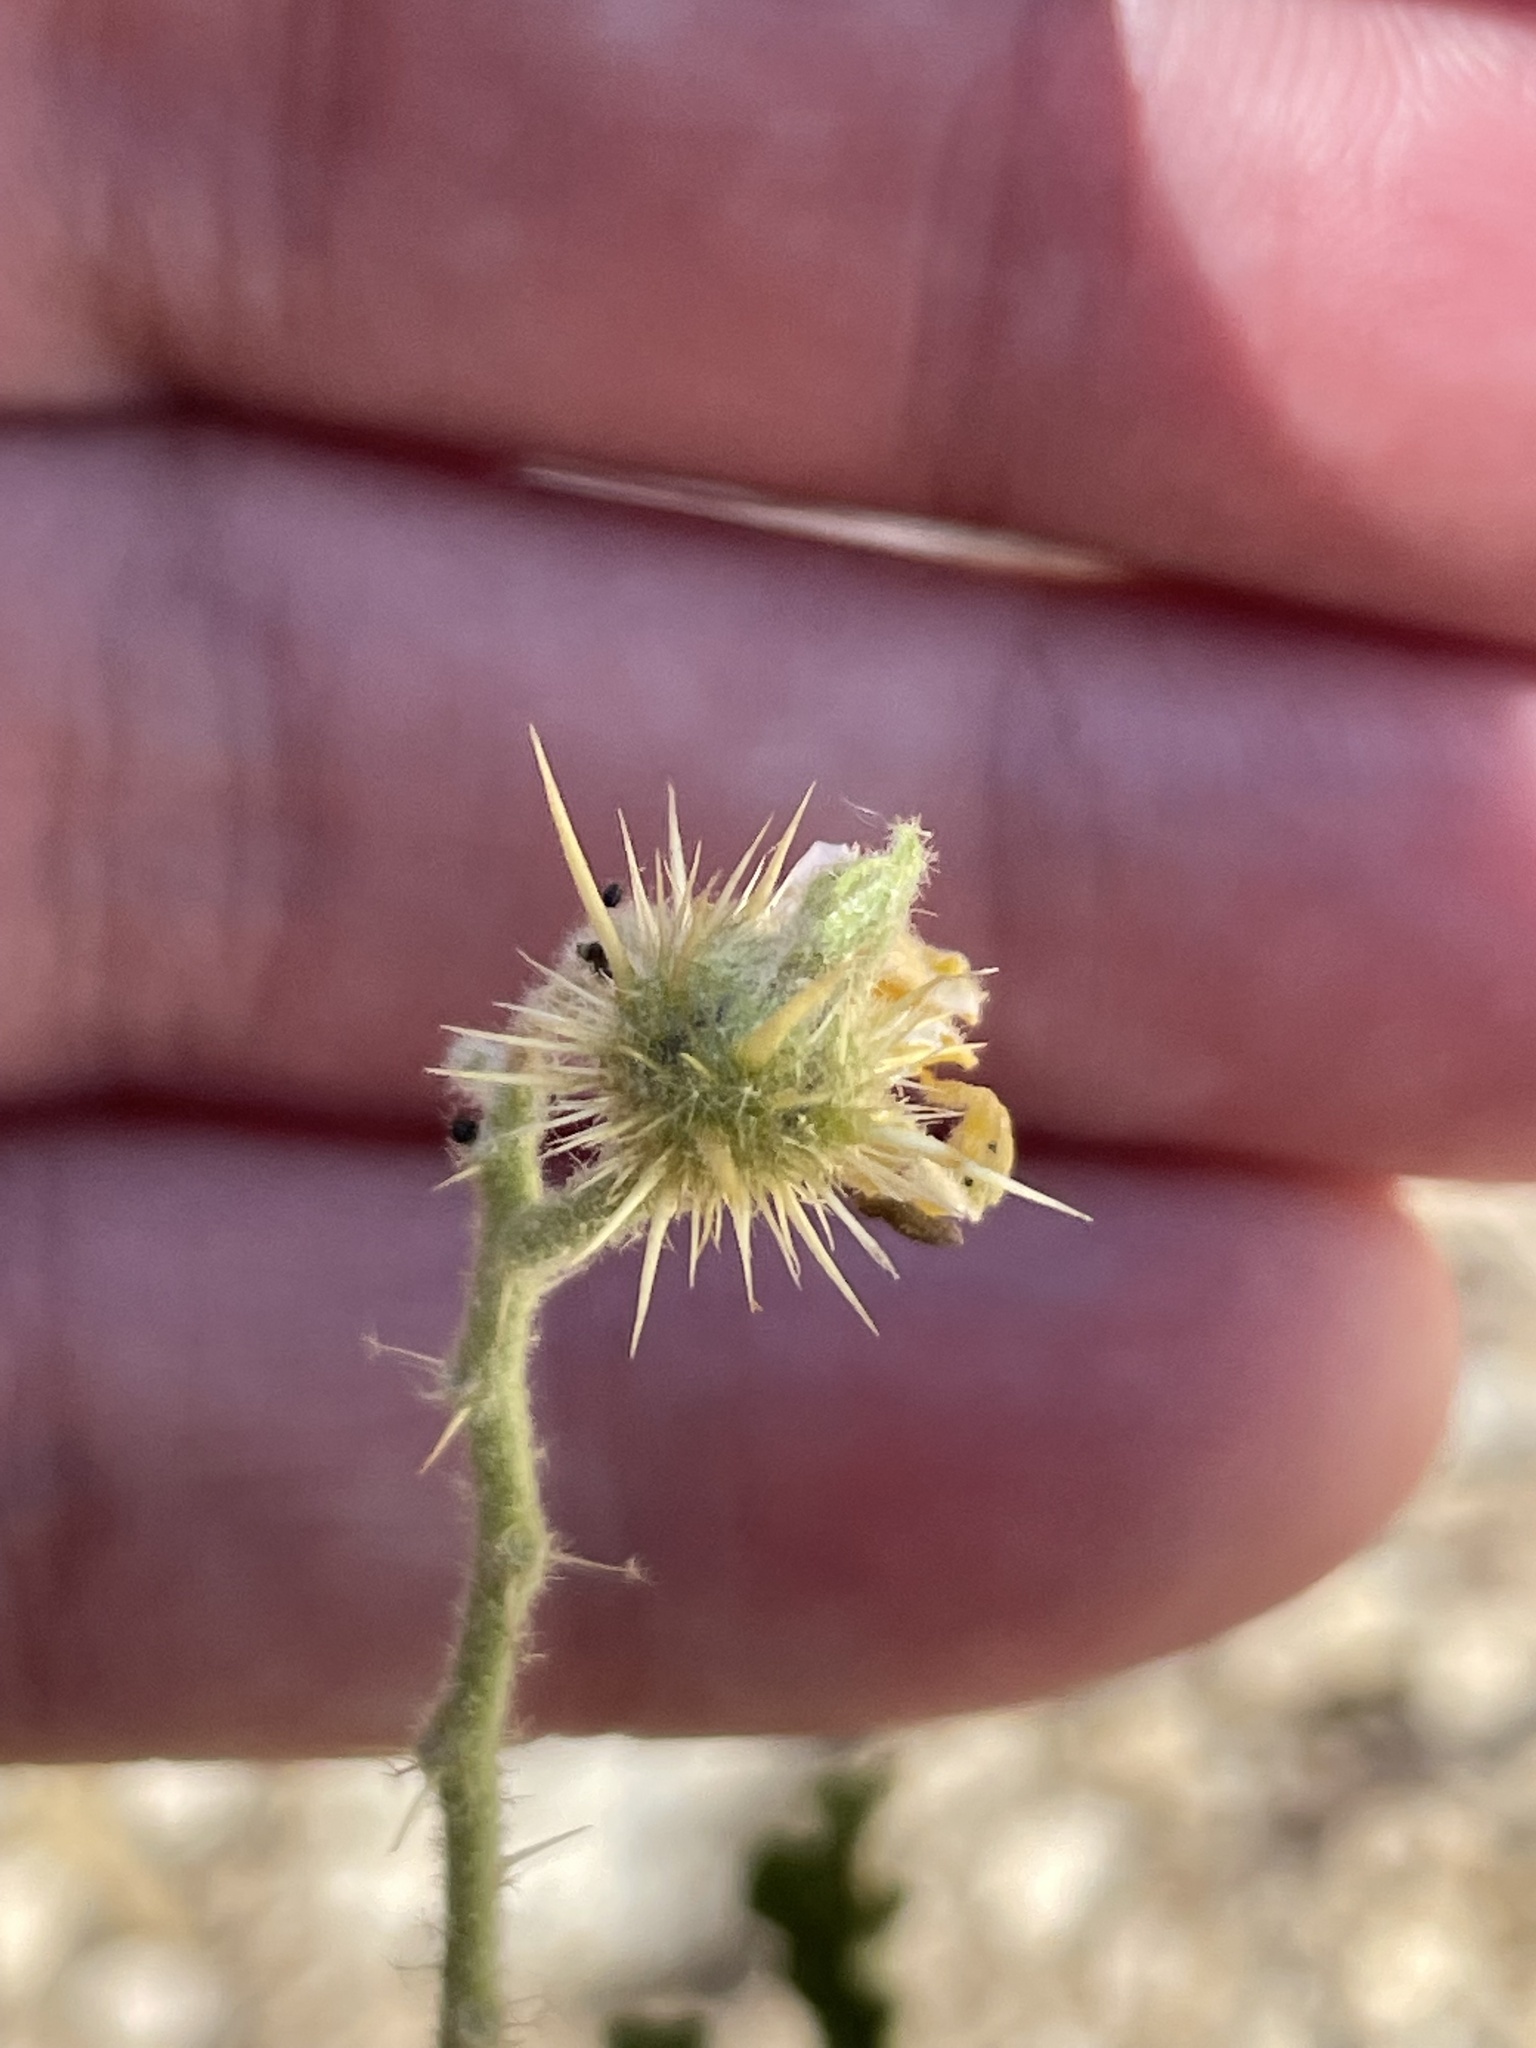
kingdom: Plantae
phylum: Tracheophyta
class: Magnoliopsida
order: Solanales
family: Solanaceae
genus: Solanum
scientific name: Solanum angustifolium
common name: Buffalobur nightshade
